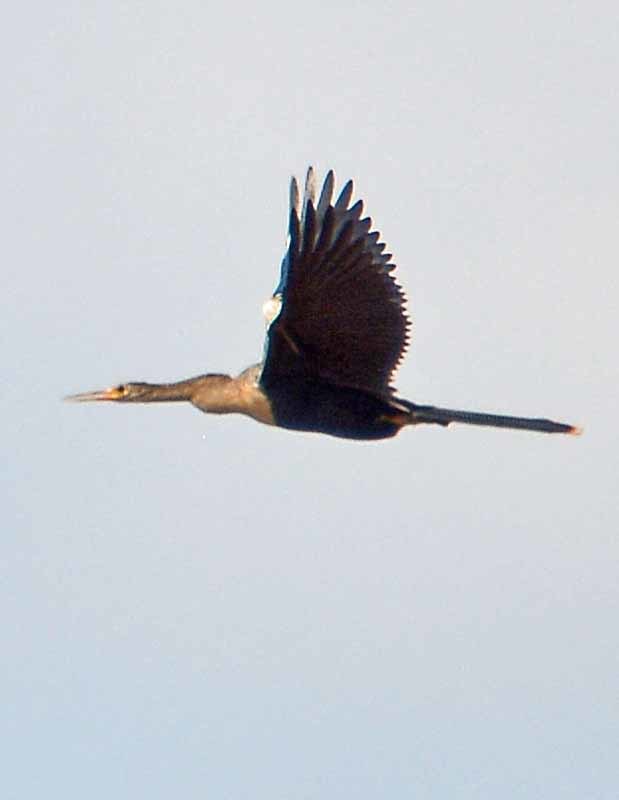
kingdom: Animalia
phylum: Chordata
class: Aves
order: Suliformes
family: Anhingidae
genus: Anhinga
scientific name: Anhinga anhinga
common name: Anhinga
